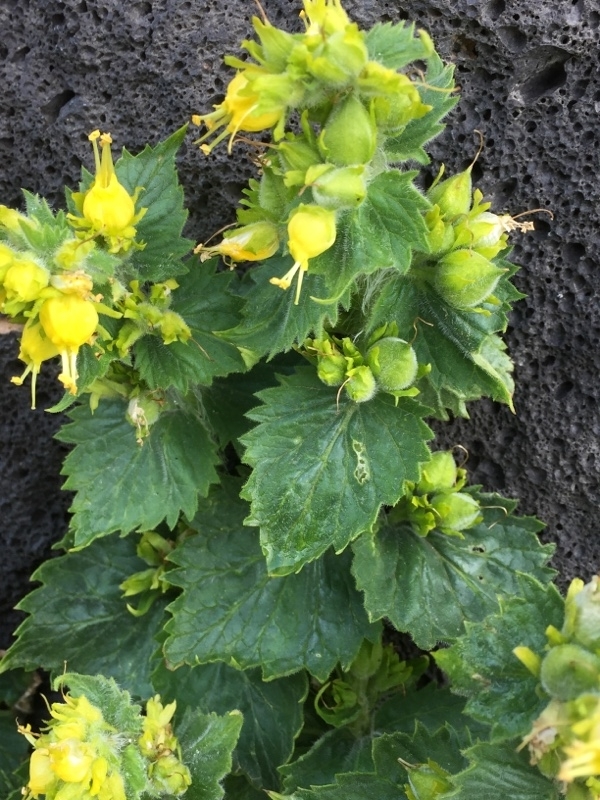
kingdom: Plantae
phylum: Tracheophyta
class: Magnoliopsida
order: Lamiales
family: Scrophulariaceae
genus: Scrophularia
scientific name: Scrophularia chrysantha
